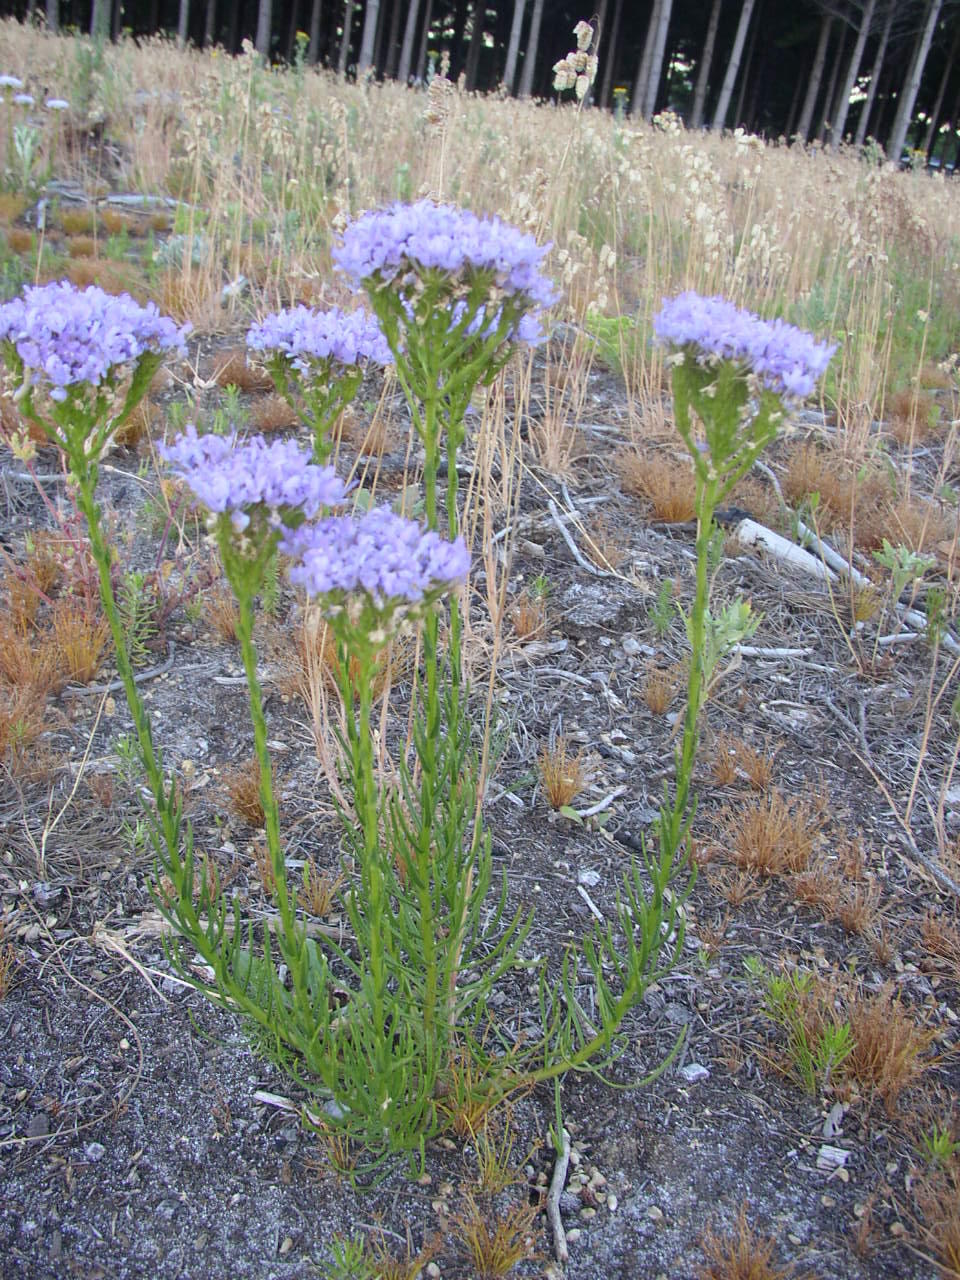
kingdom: Plantae
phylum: Tracheophyta
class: Magnoliopsida
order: Lamiales
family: Scrophulariaceae
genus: Pseudoselago
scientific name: Pseudoselago spuria
